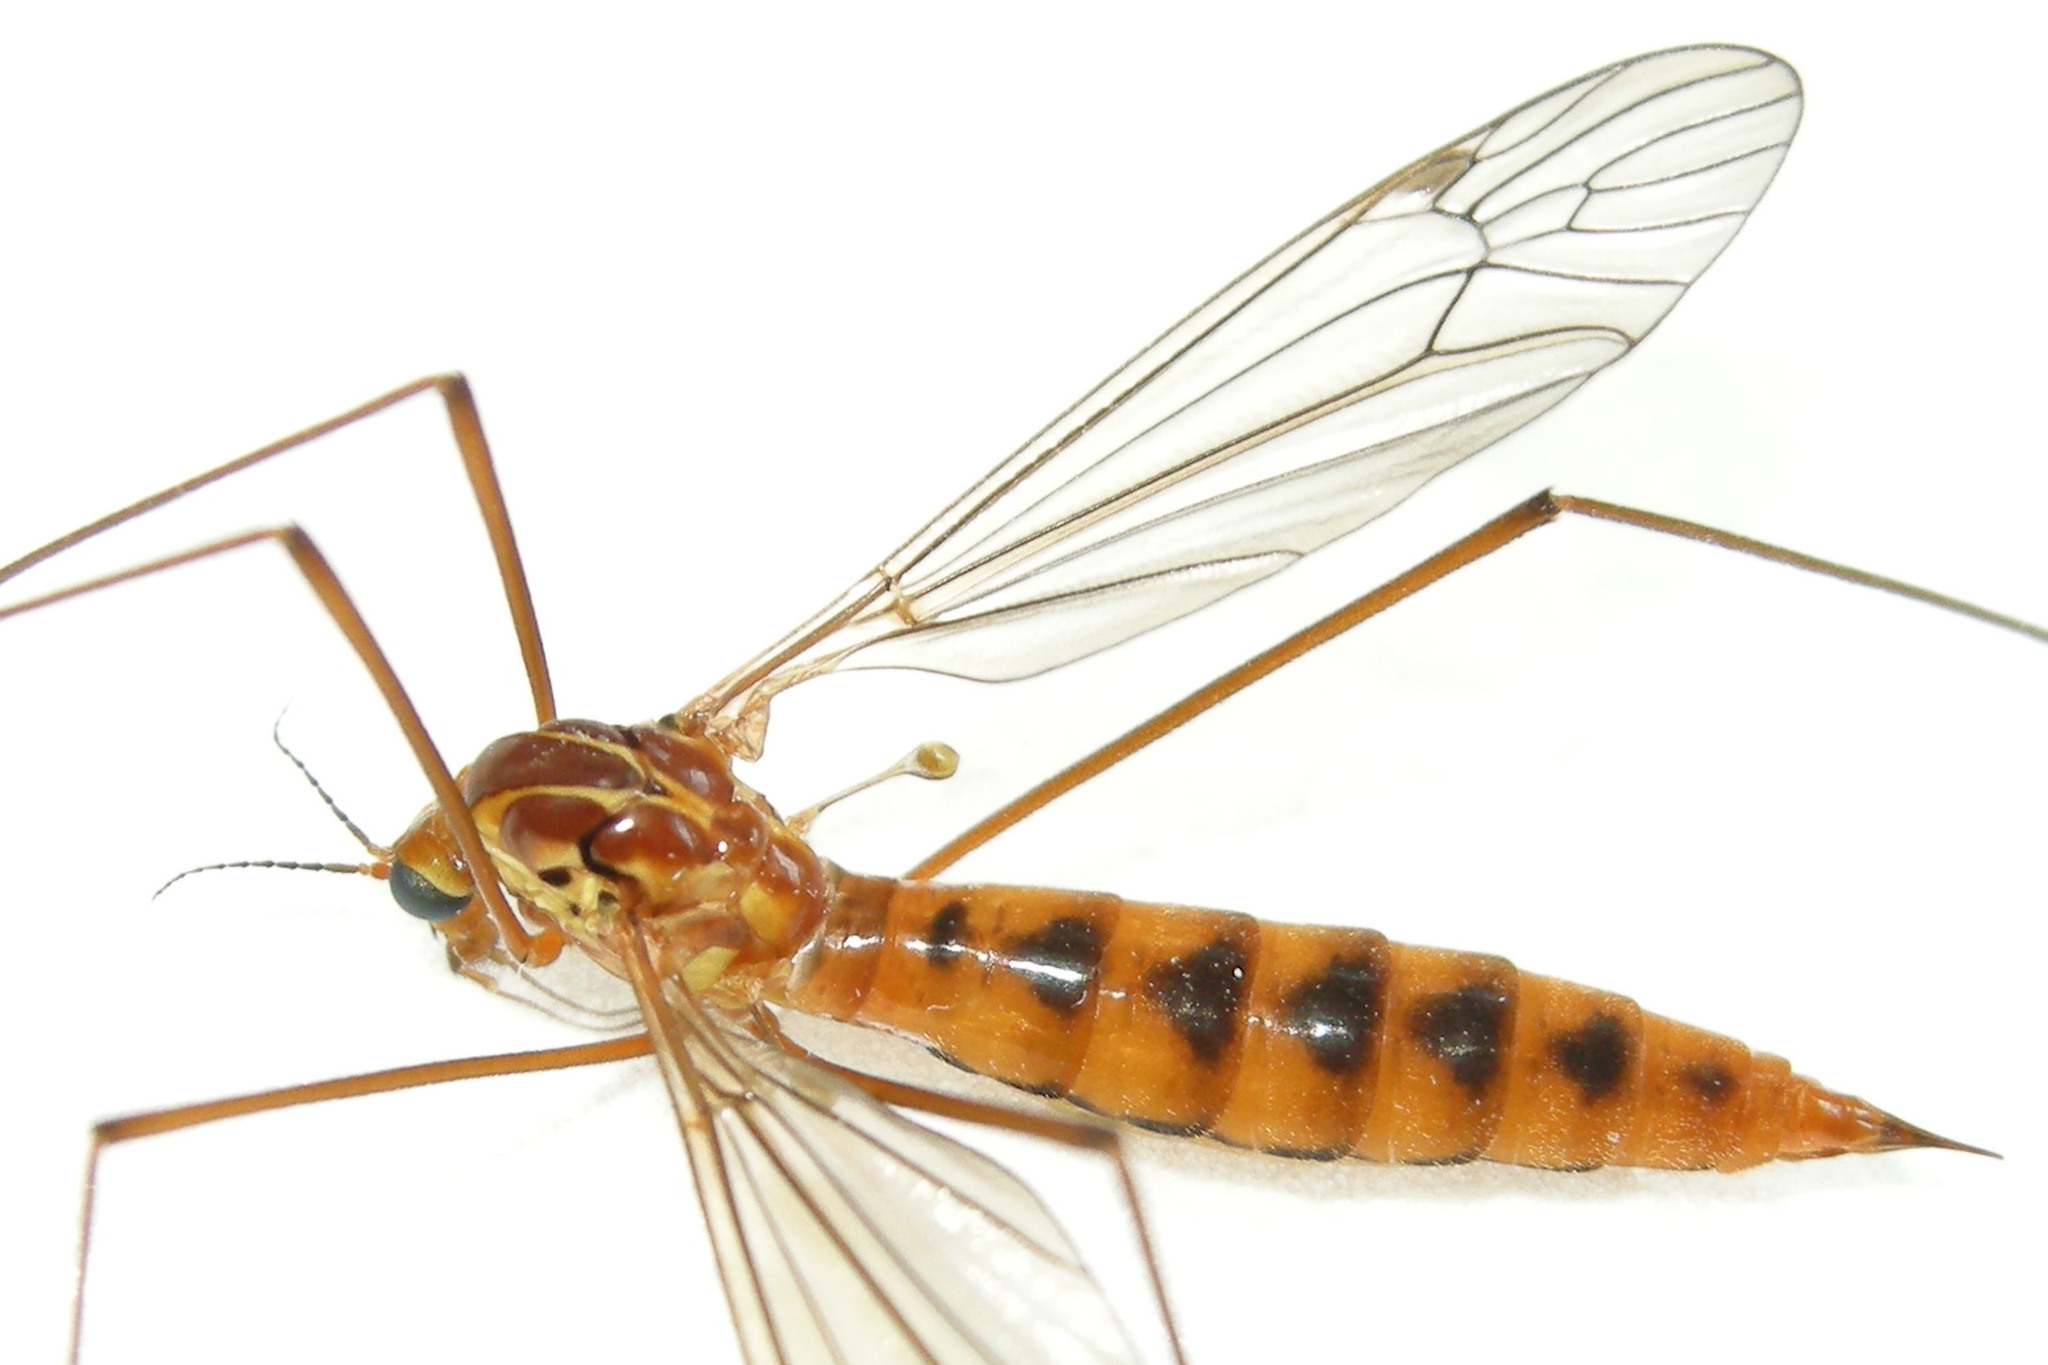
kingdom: Animalia
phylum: Arthropoda
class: Insecta
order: Diptera
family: Tipulidae
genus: Nephrotoma
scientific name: Nephrotoma ferruginea
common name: Ferruginous tiger crane fly
